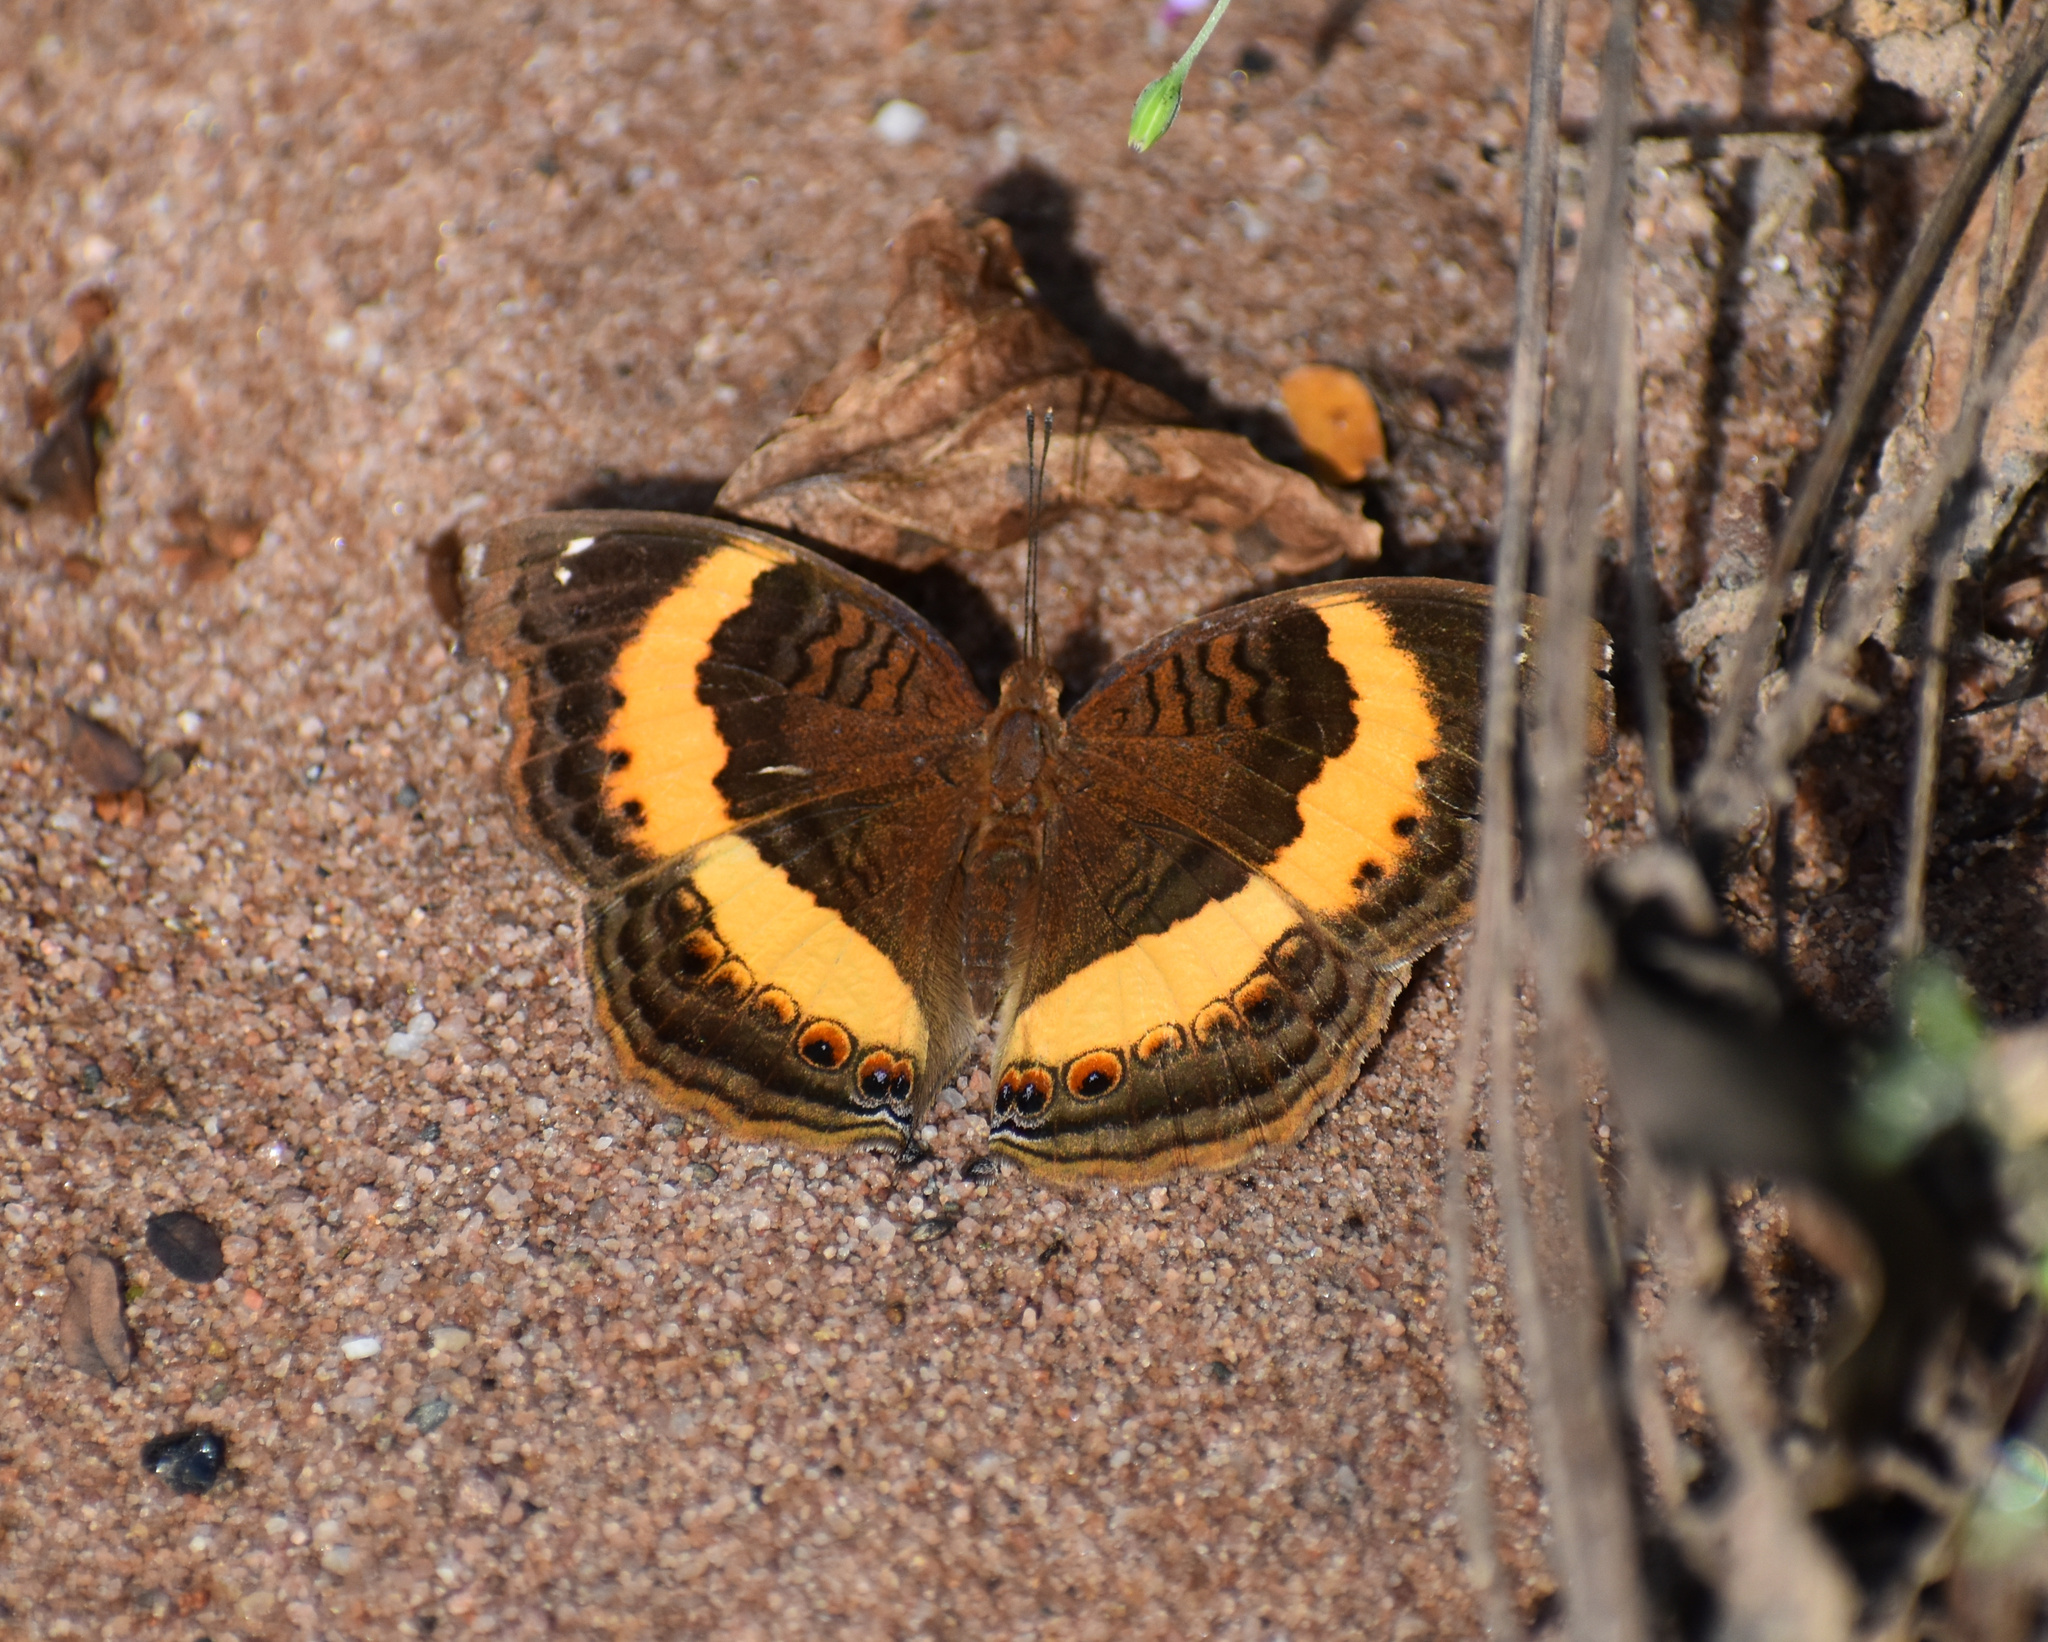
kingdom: Animalia
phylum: Arthropoda
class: Insecta
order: Lepidoptera
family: Nymphalidae
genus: Junonia
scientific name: Junonia terea
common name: Soldier pansy
